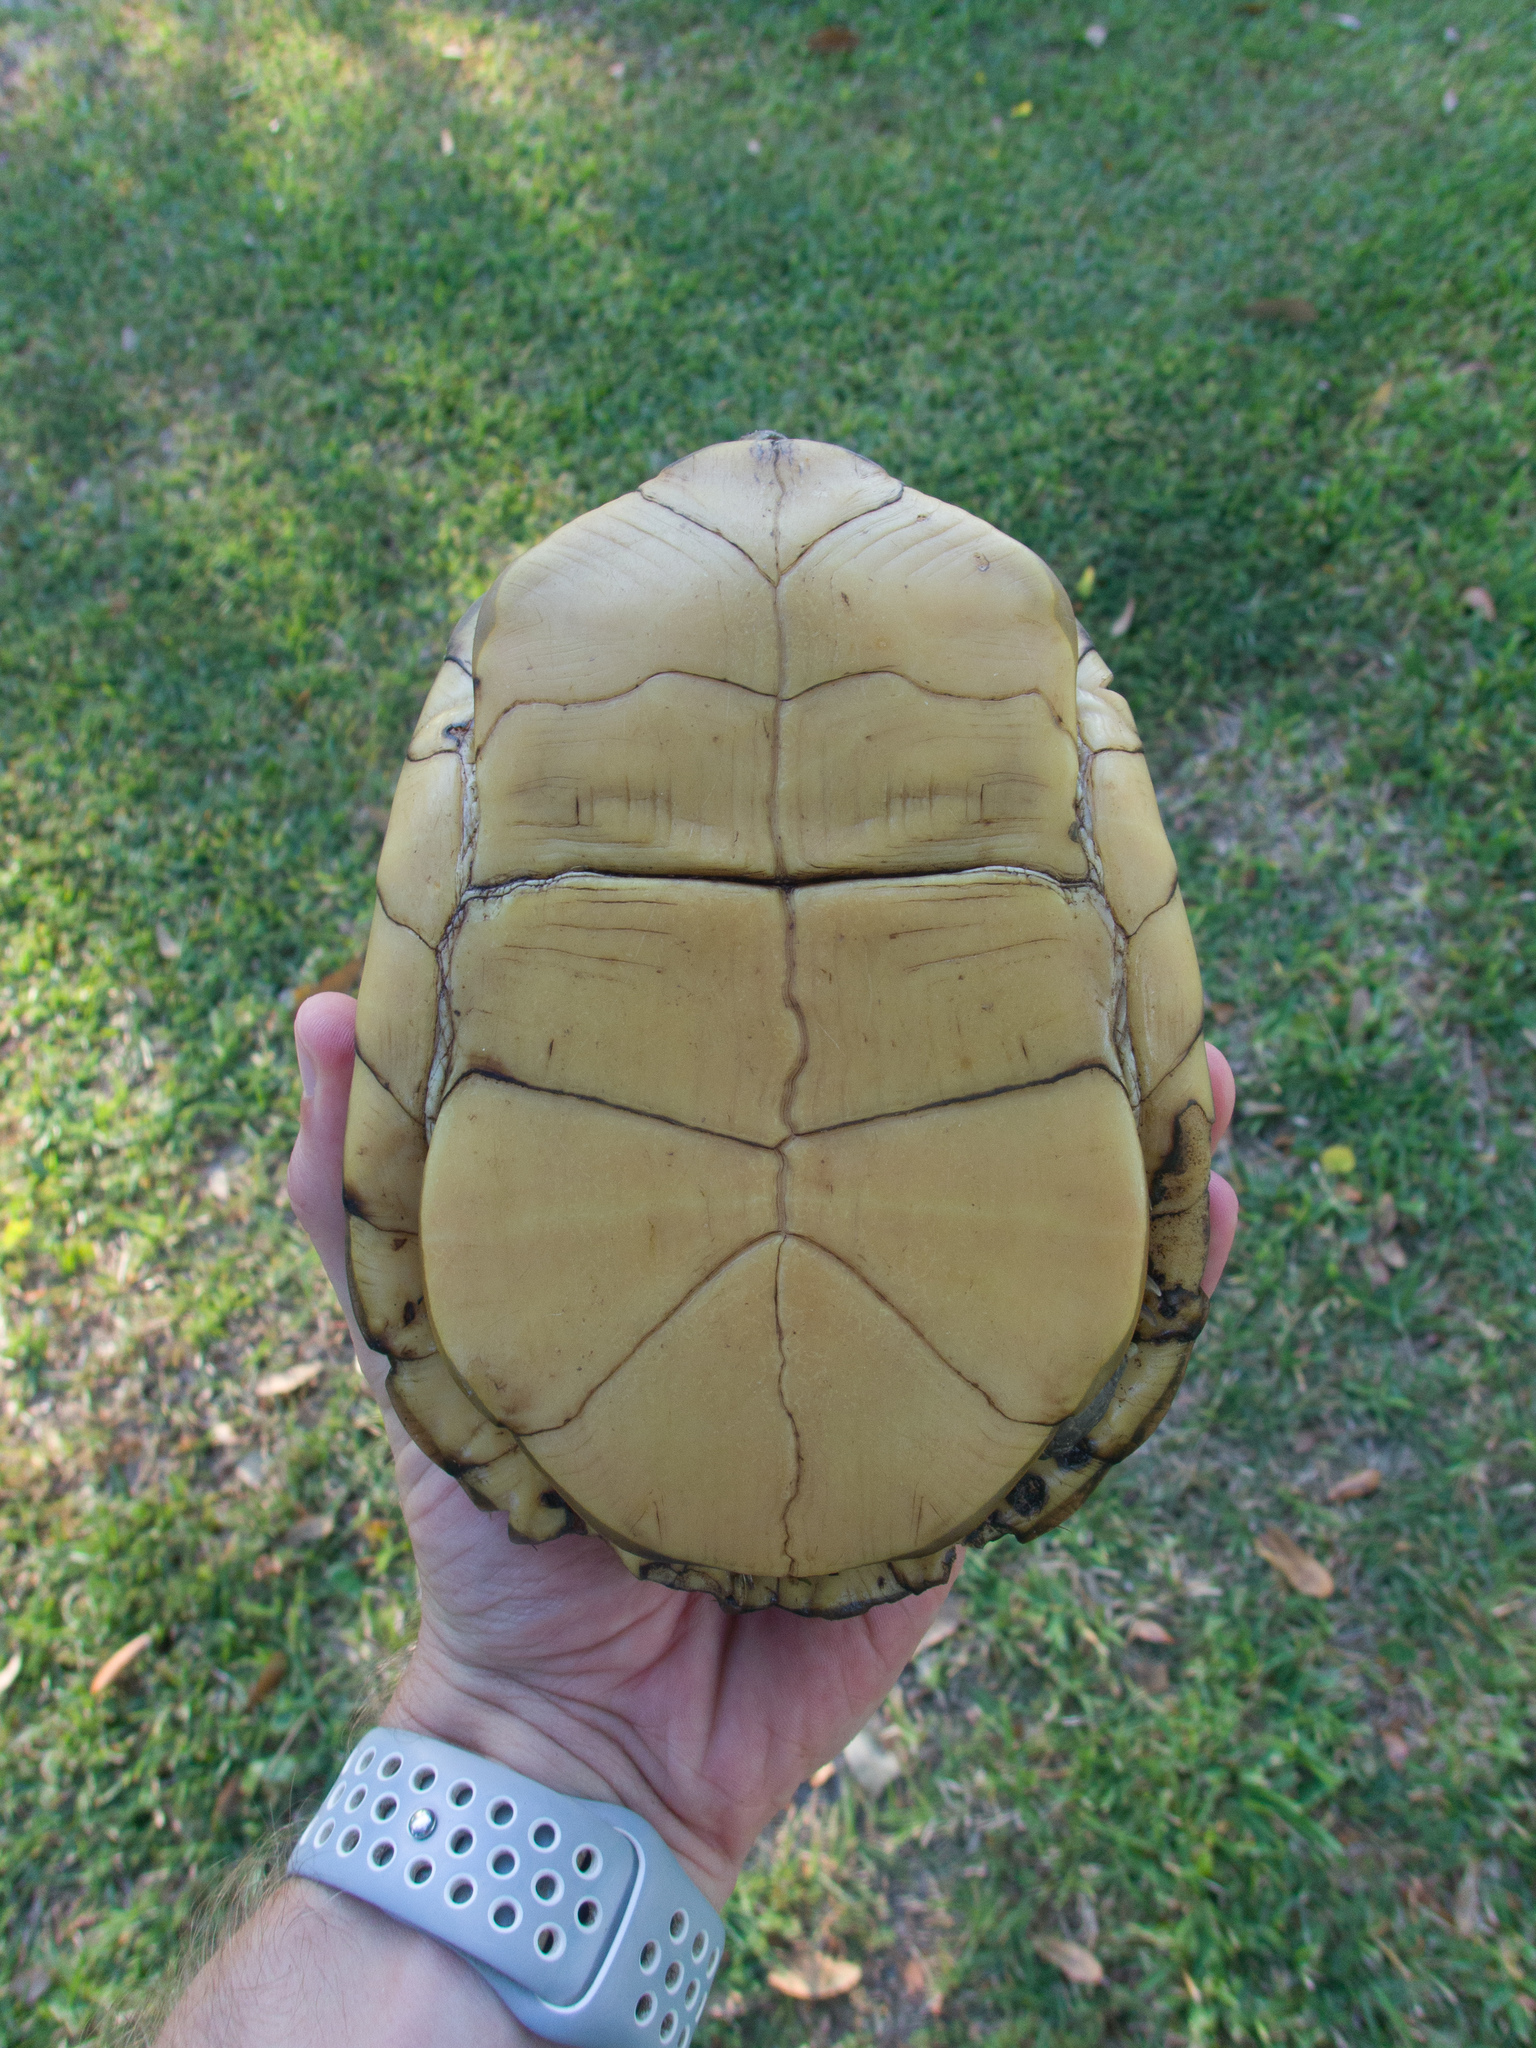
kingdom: Animalia
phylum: Chordata
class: Testudines
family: Emydidae
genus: Terrapene
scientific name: Terrapene carolina
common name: Common box turtle
